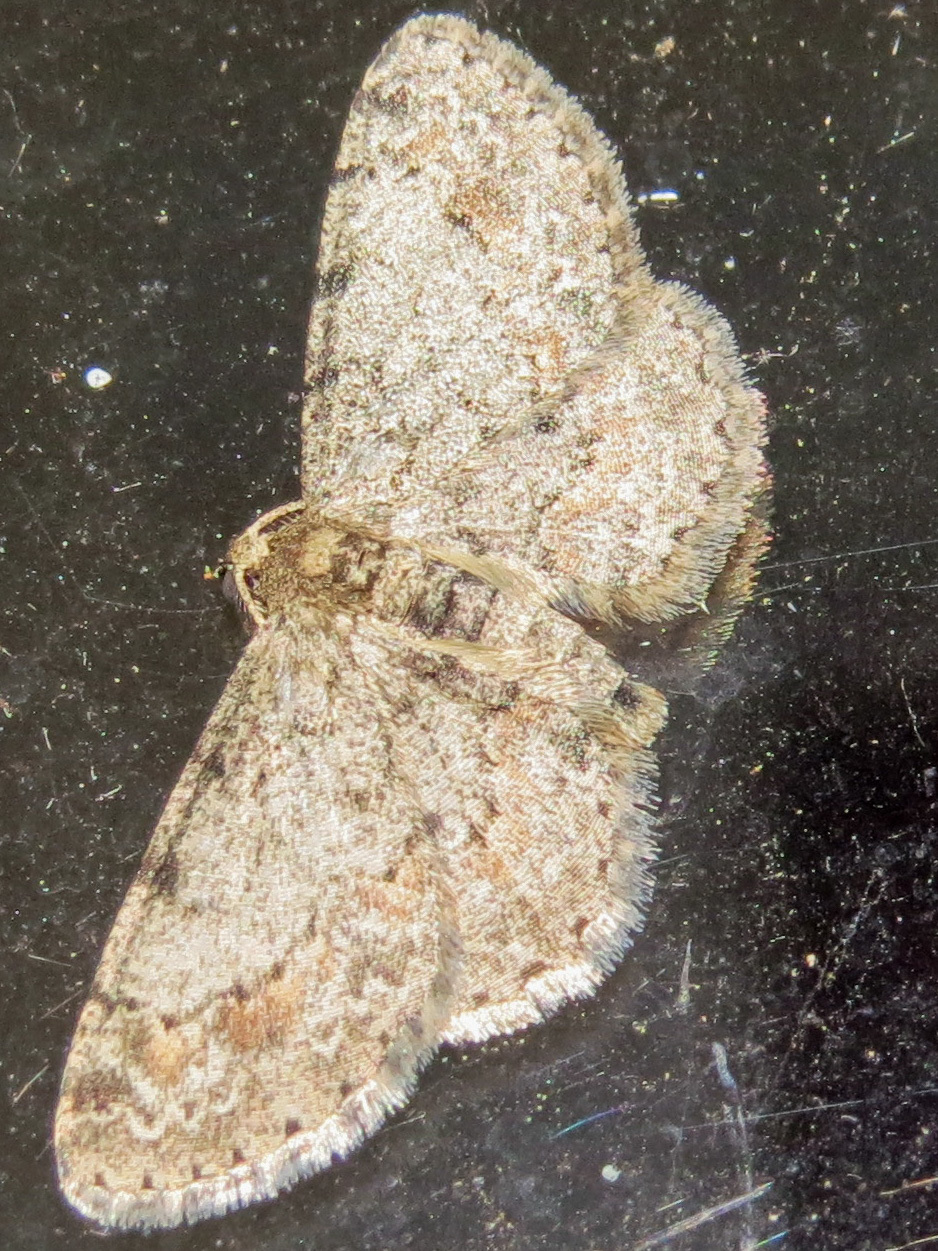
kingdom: Animalia
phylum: Arthropoda
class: Insecta
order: Lepidoptera
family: Geometridae
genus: Glenoides
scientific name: Glenoides texanaria
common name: Texas gray
